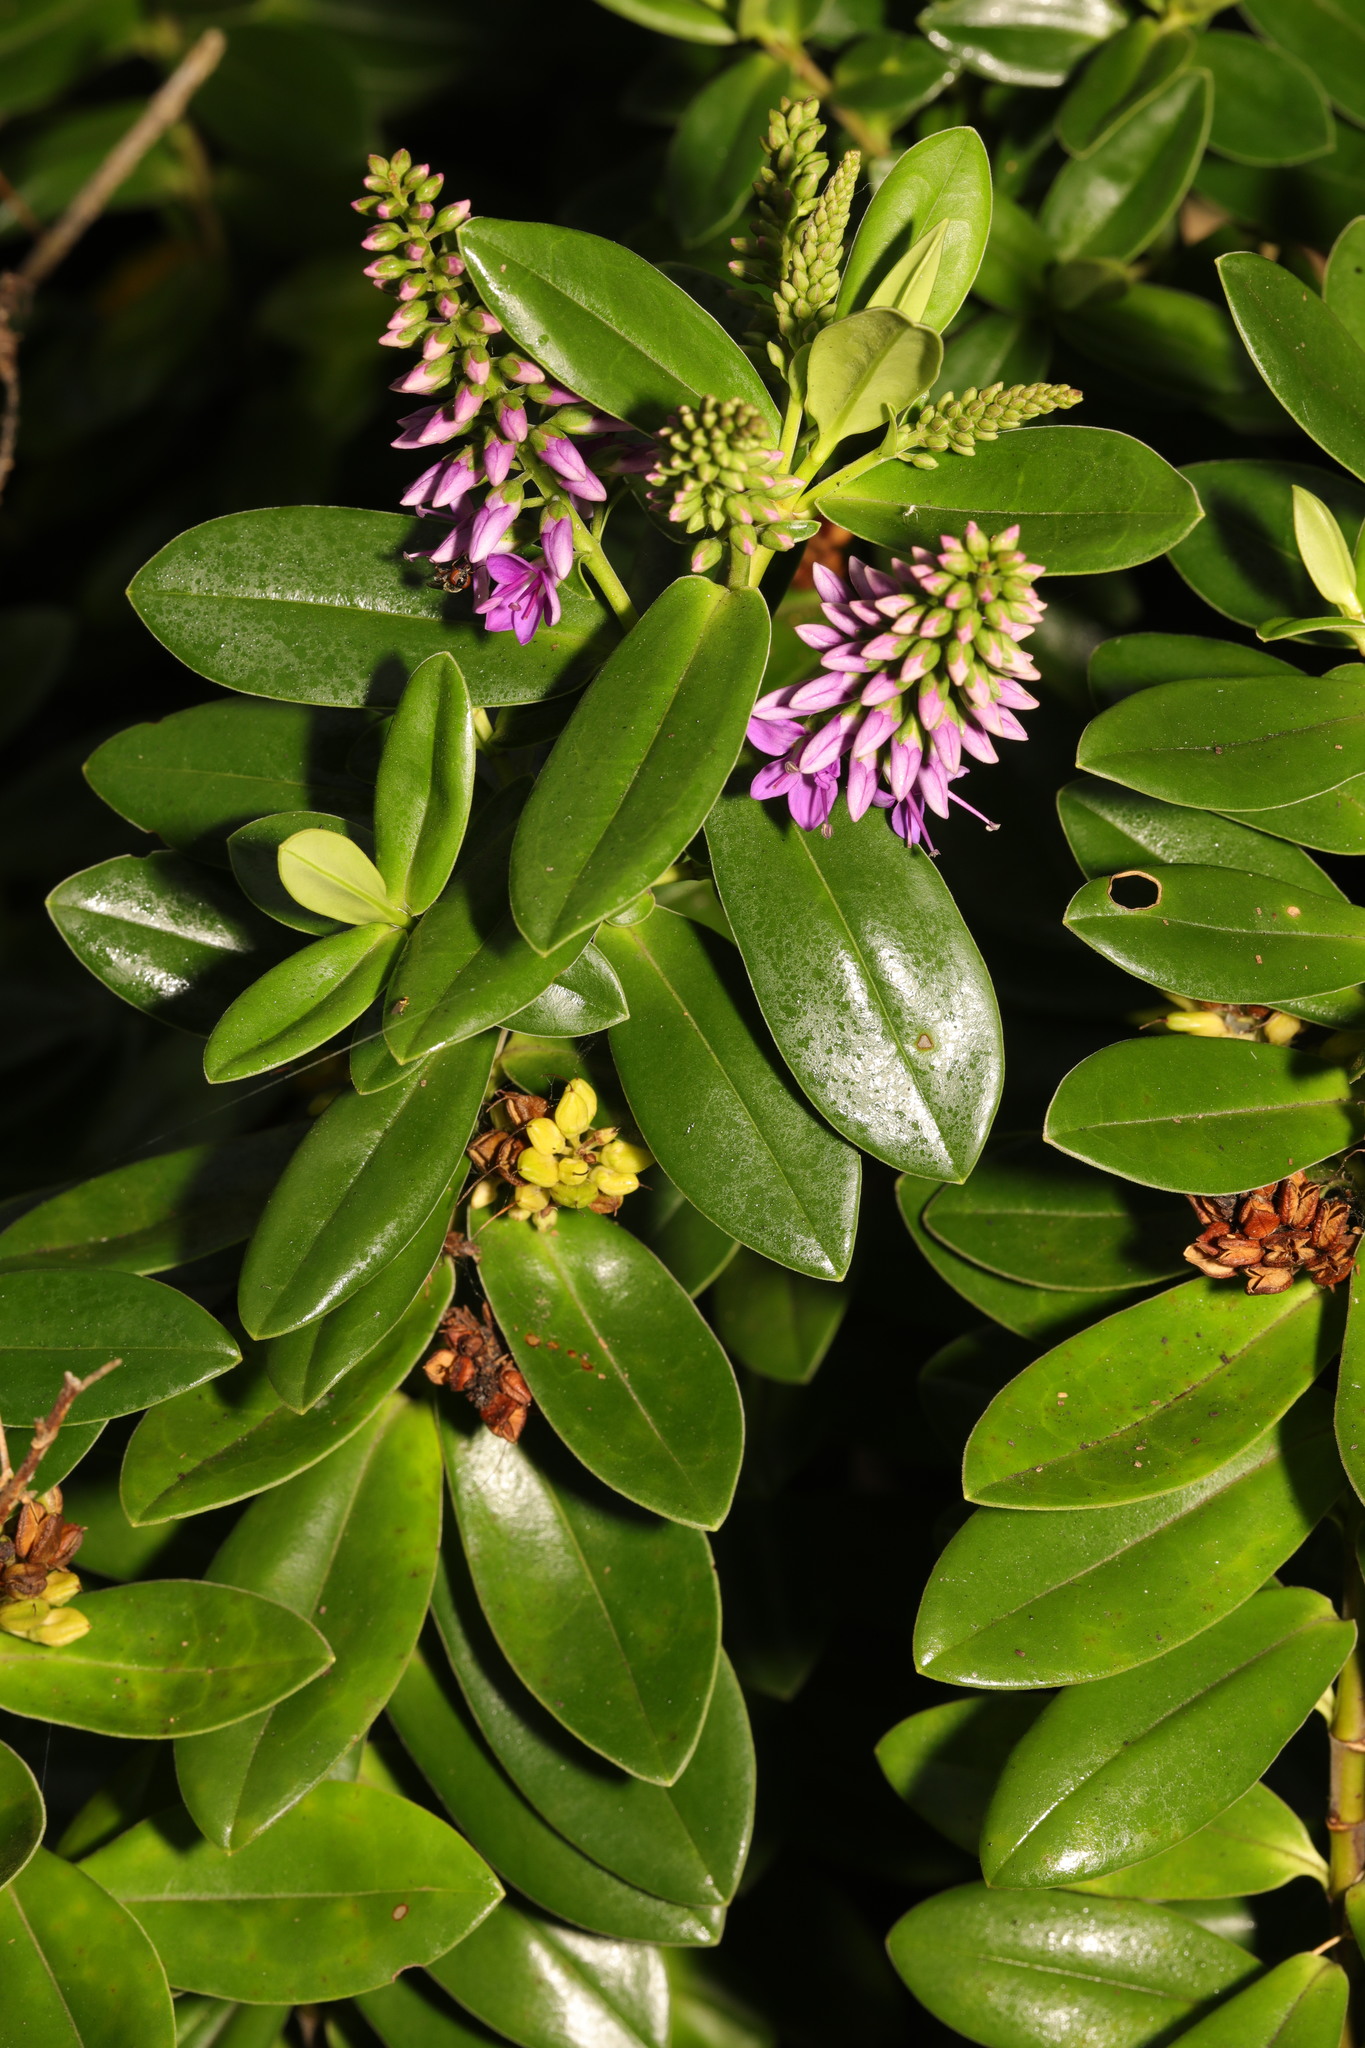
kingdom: Plantae
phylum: Tracheophyta
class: Magnoliopsida
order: Lamiales
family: Plantaginaceae
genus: Veronica
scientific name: Veronica franciscana
